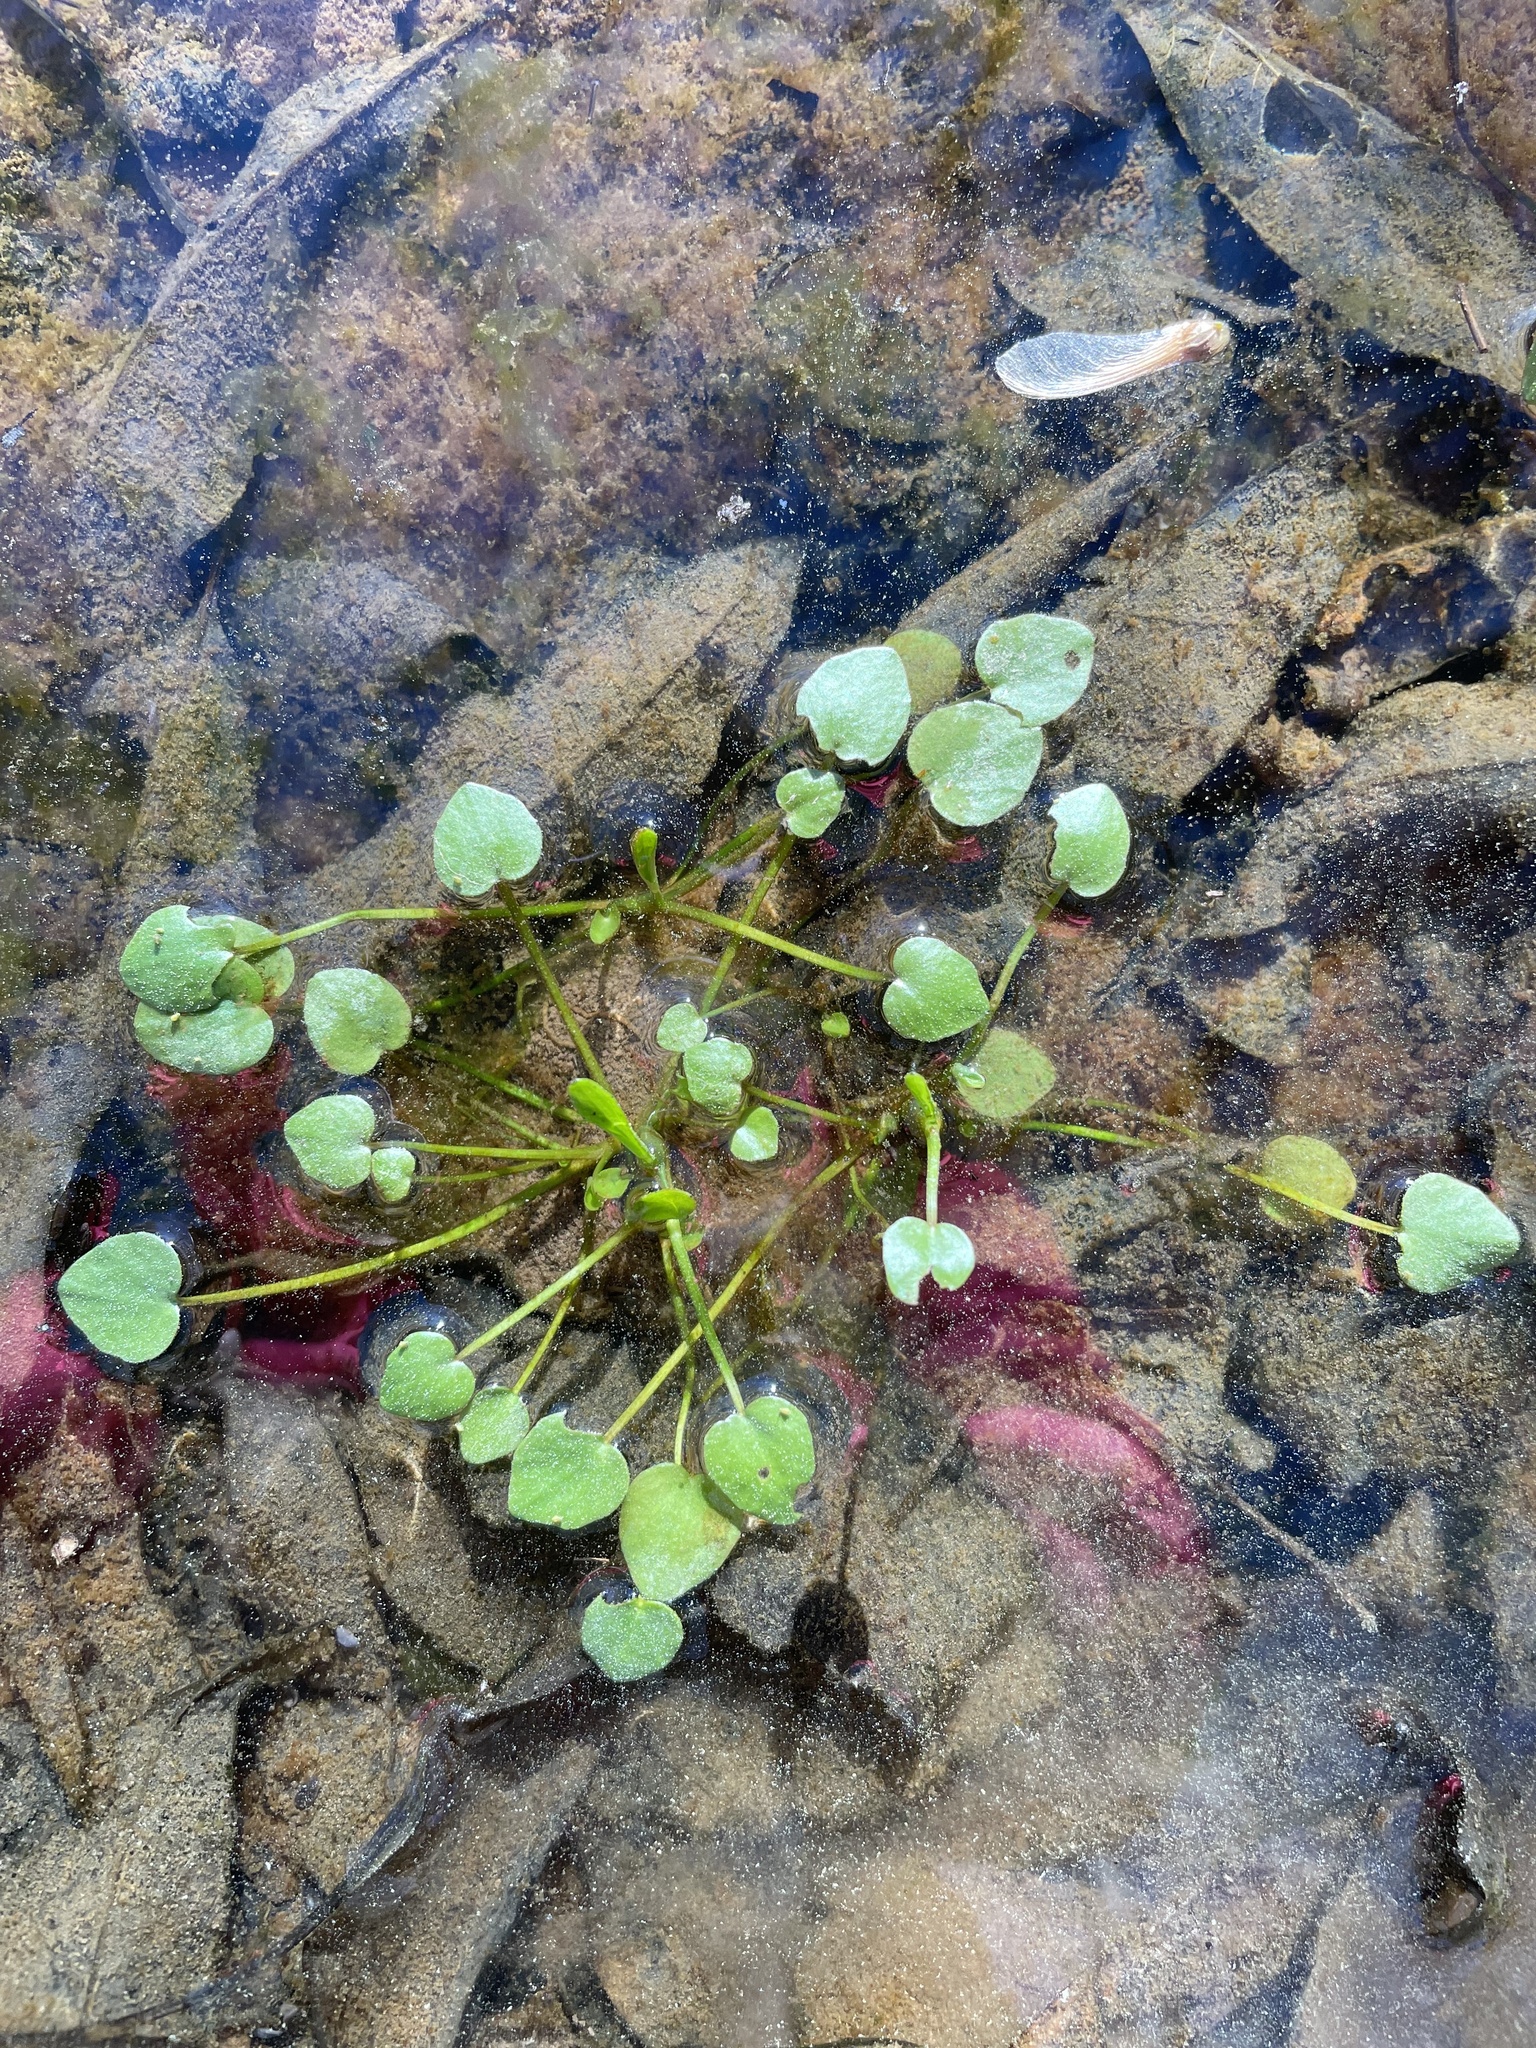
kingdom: Plantae
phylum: Tracheophyta
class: Magnoliopsida
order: Ranunculales
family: Ranunculaceae
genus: Ranunculus
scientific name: Ranunculus pusillus
